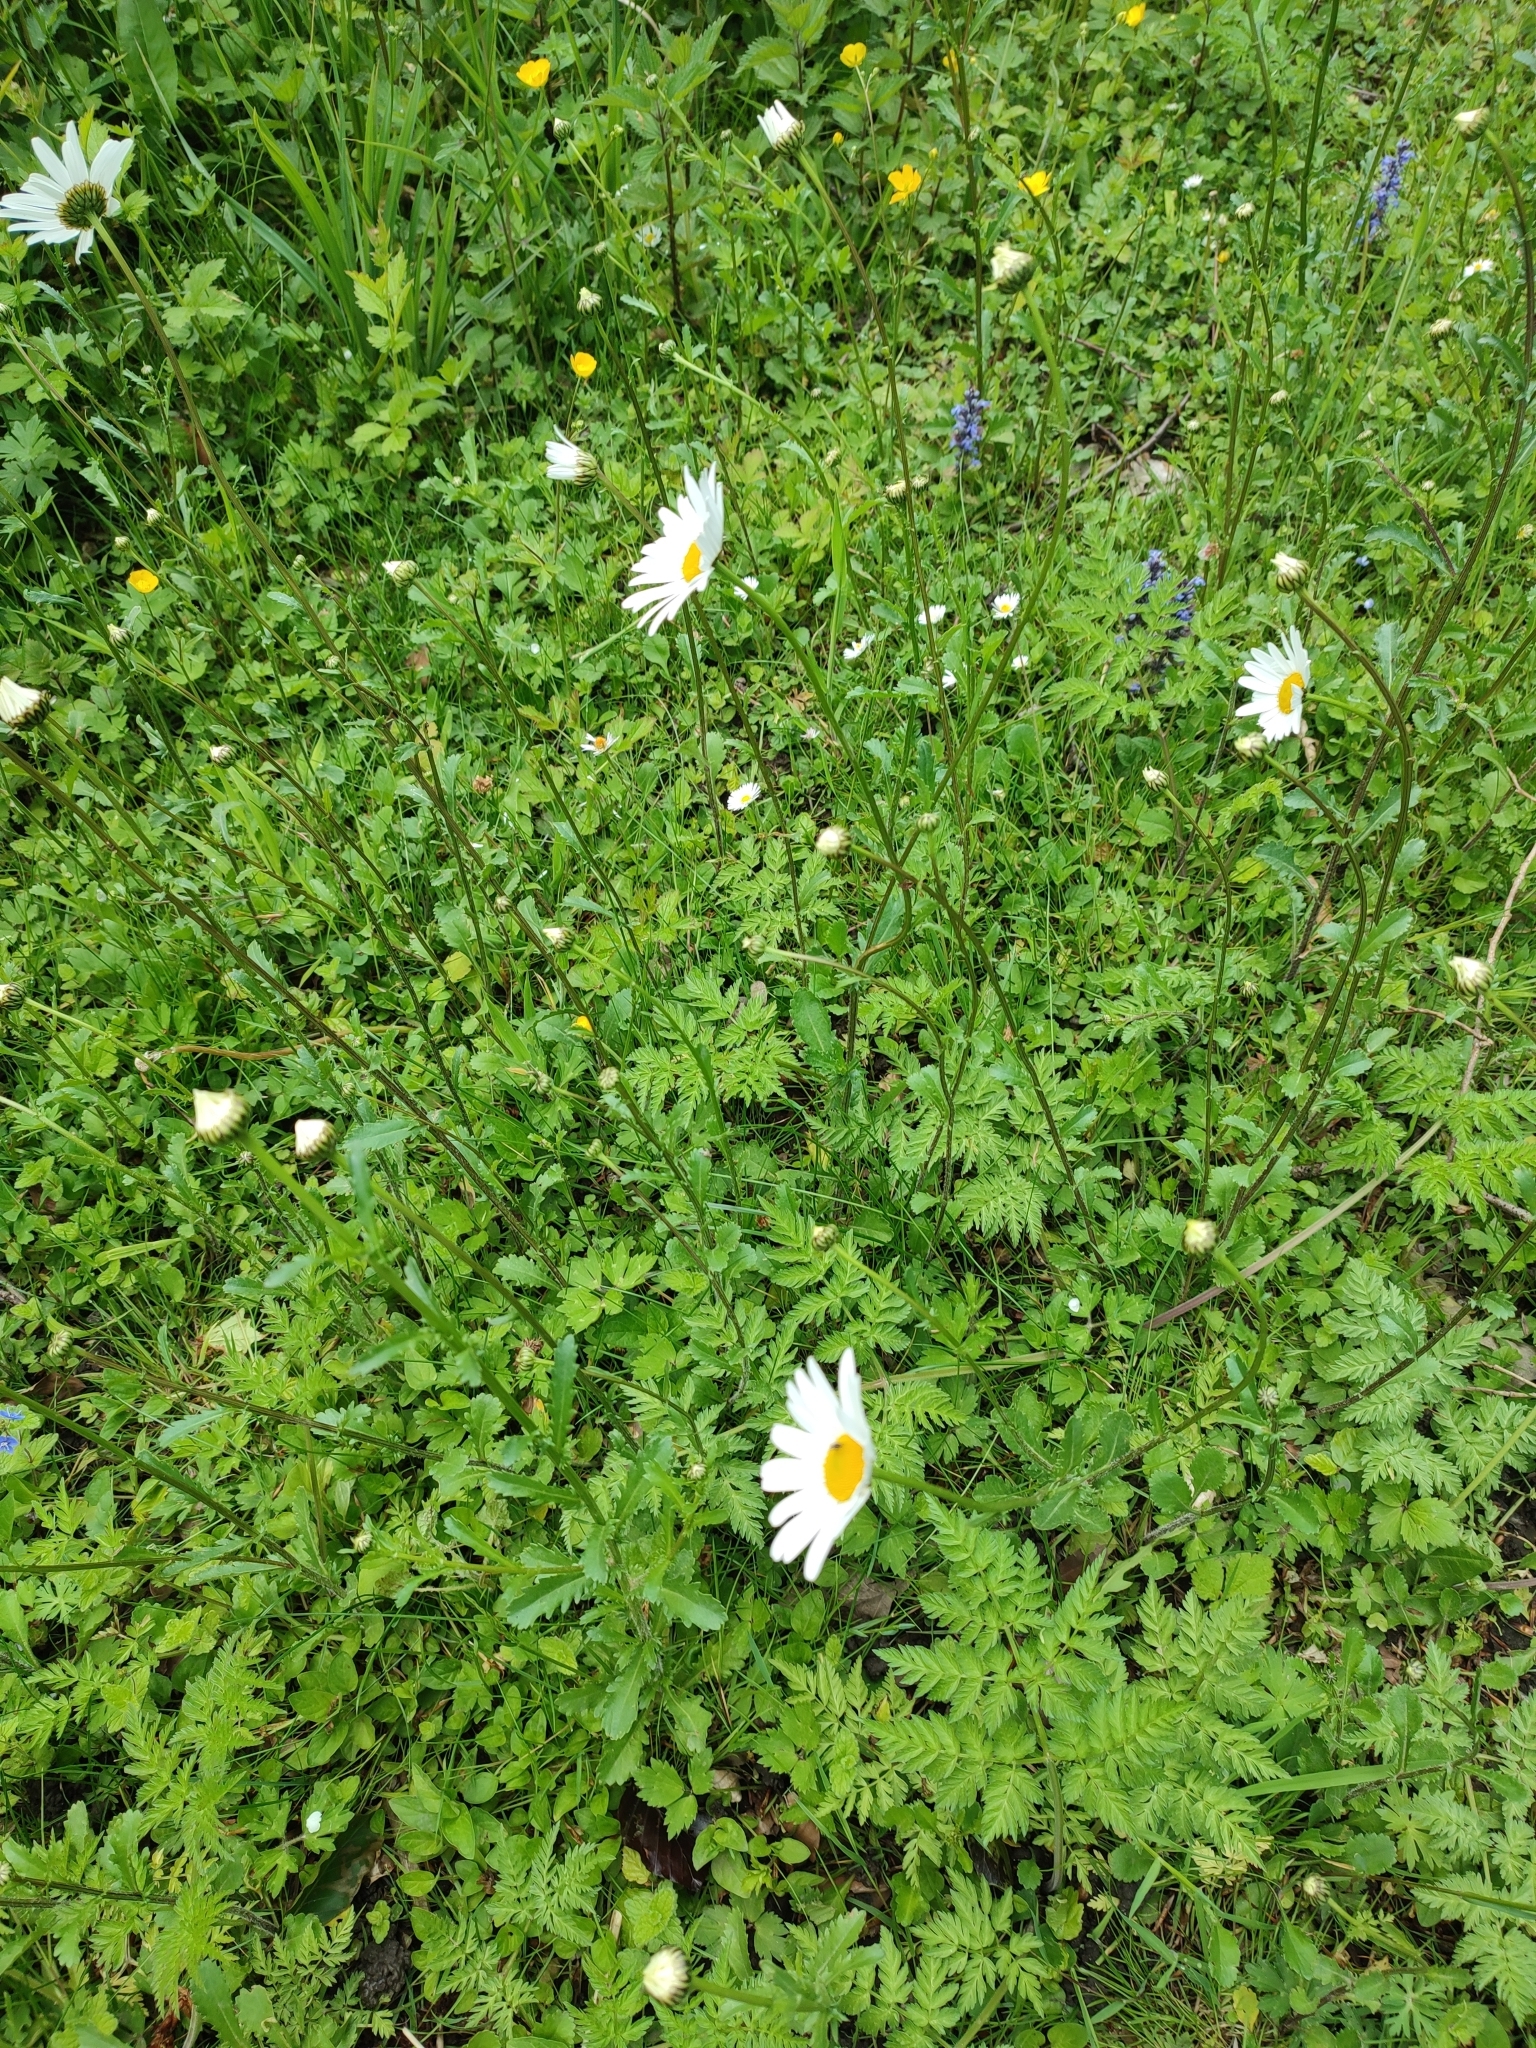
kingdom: Plantae
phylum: Tracheophyta
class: Magnoliopsida
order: Asterales
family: Asteraceae
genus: Leucanthemum
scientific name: Leucanthemum vulgare
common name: Oxeye daisy
